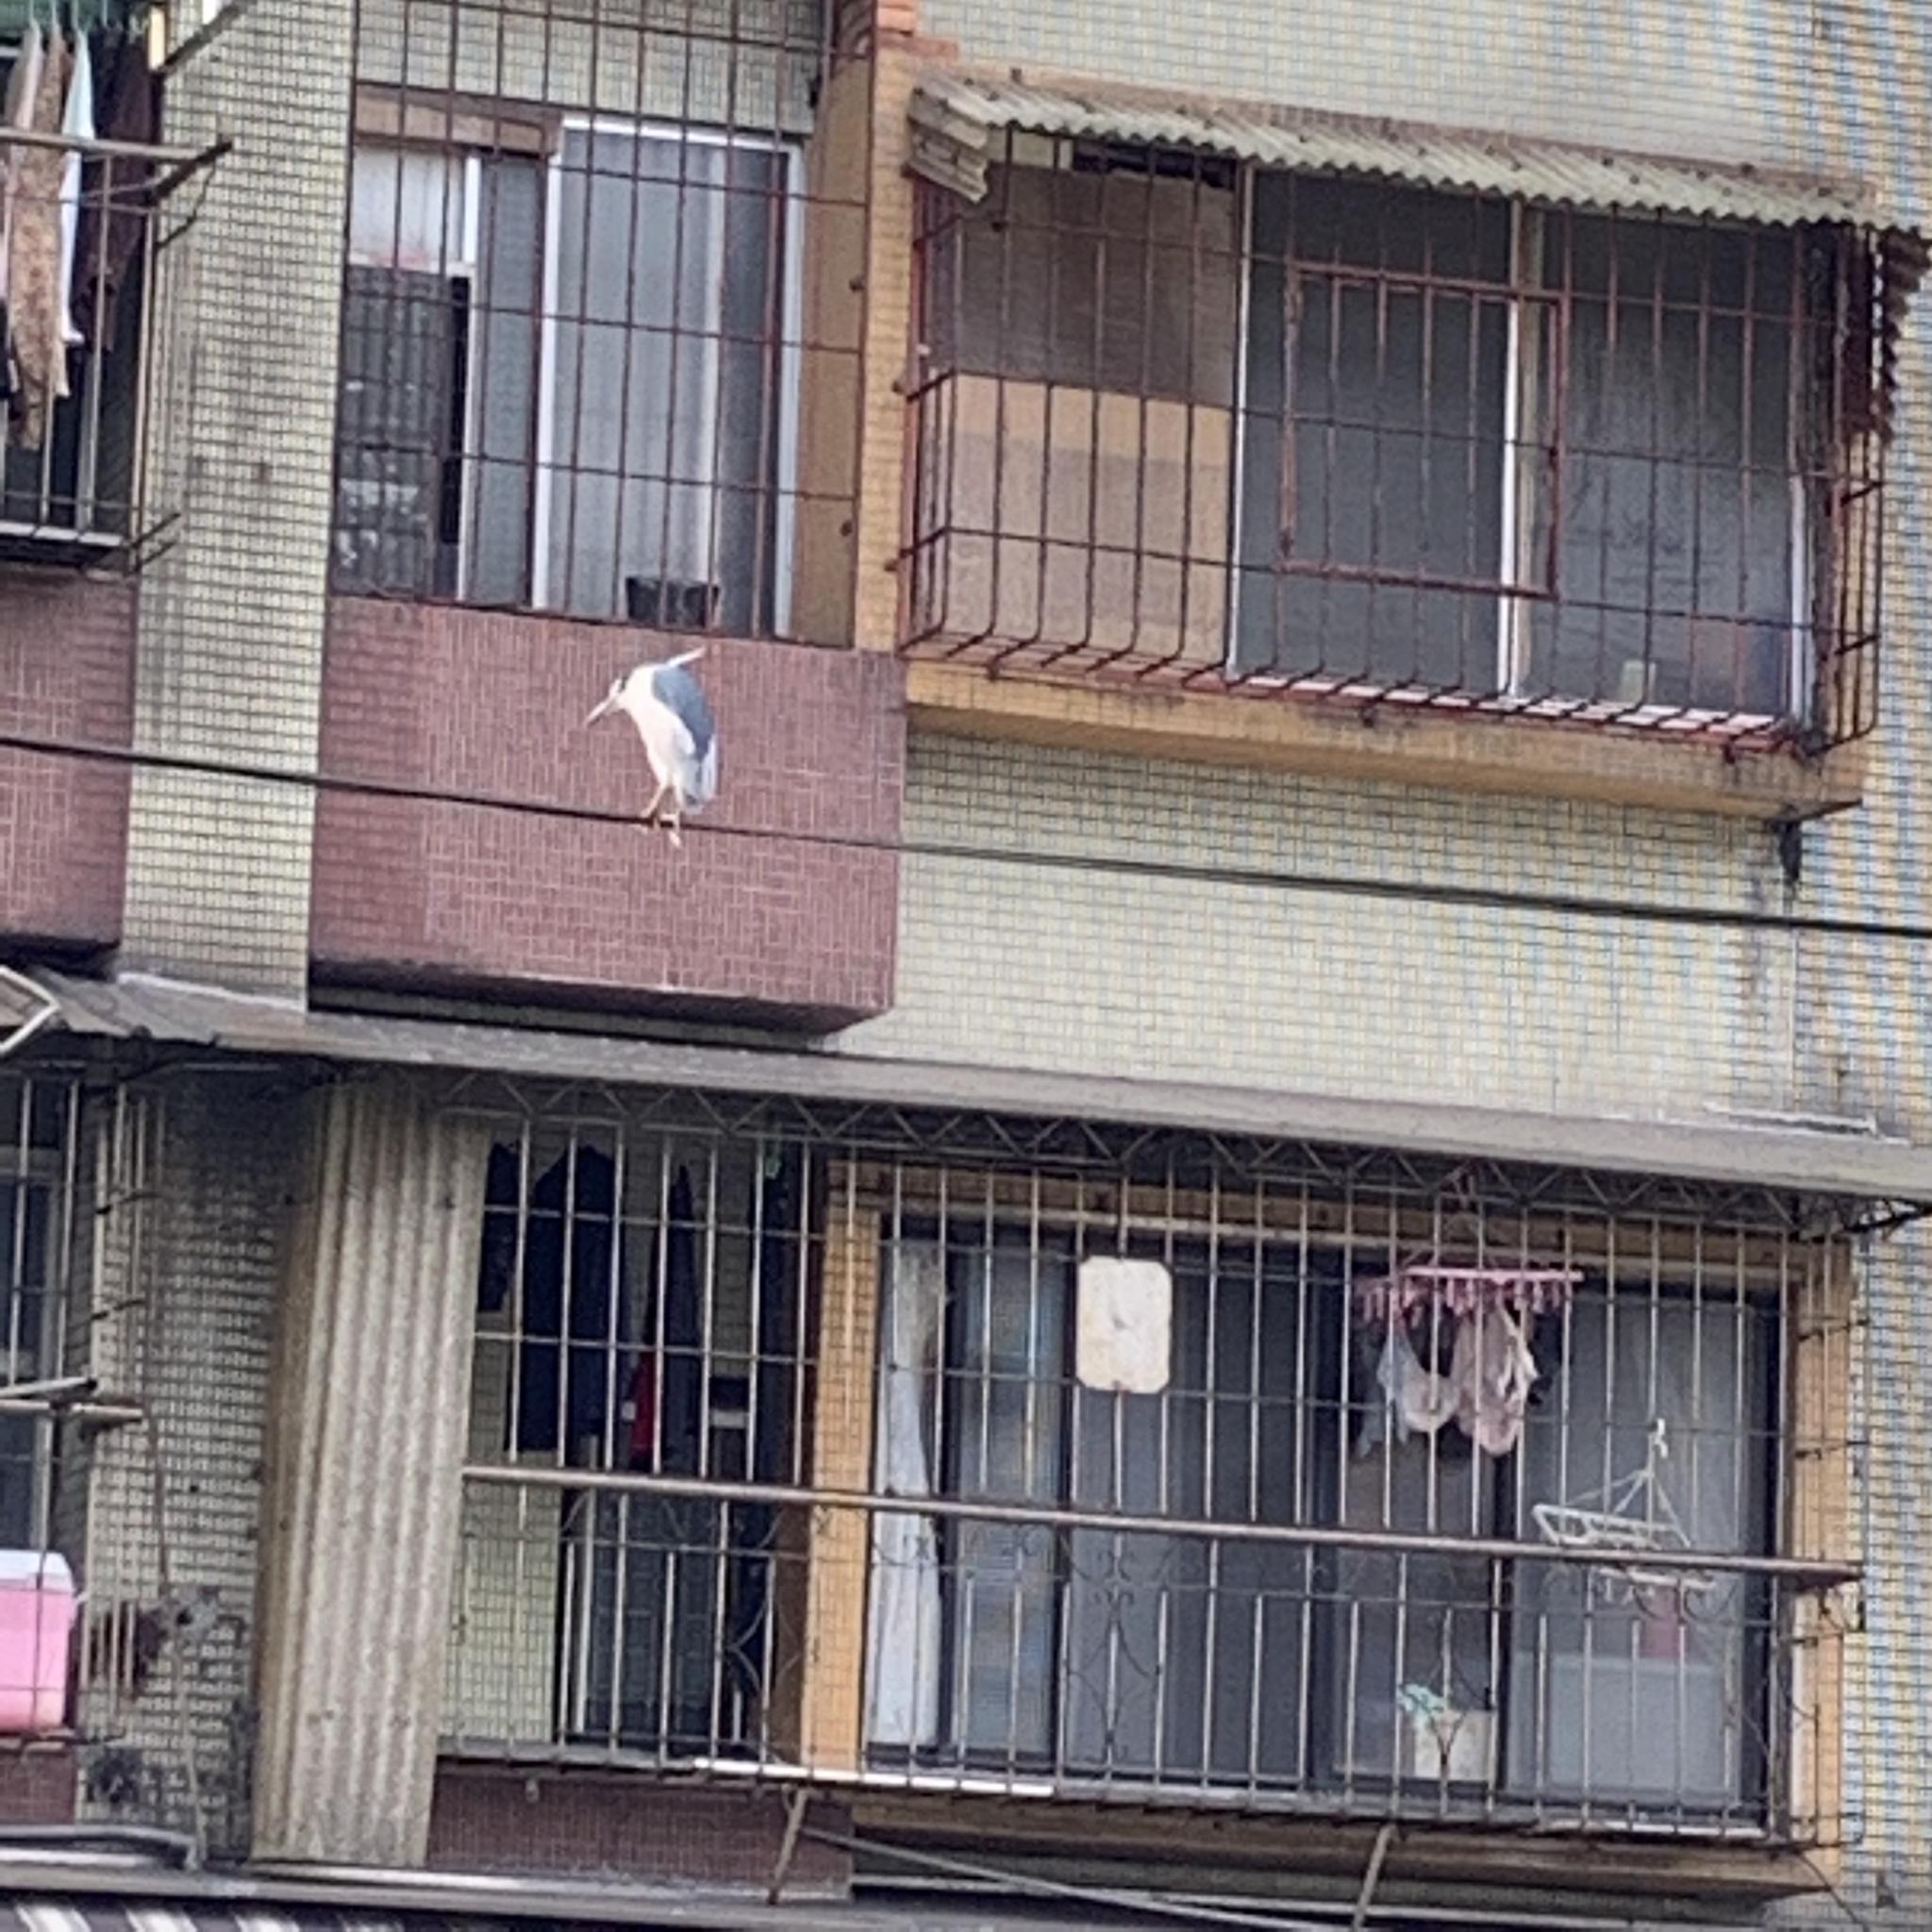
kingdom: Animalia
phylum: Chordata
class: Aves
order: Pelecaniformes
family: Ardeidae
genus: Nycticorax
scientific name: Nycticorax nycticorax
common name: Black-crowned night heron
